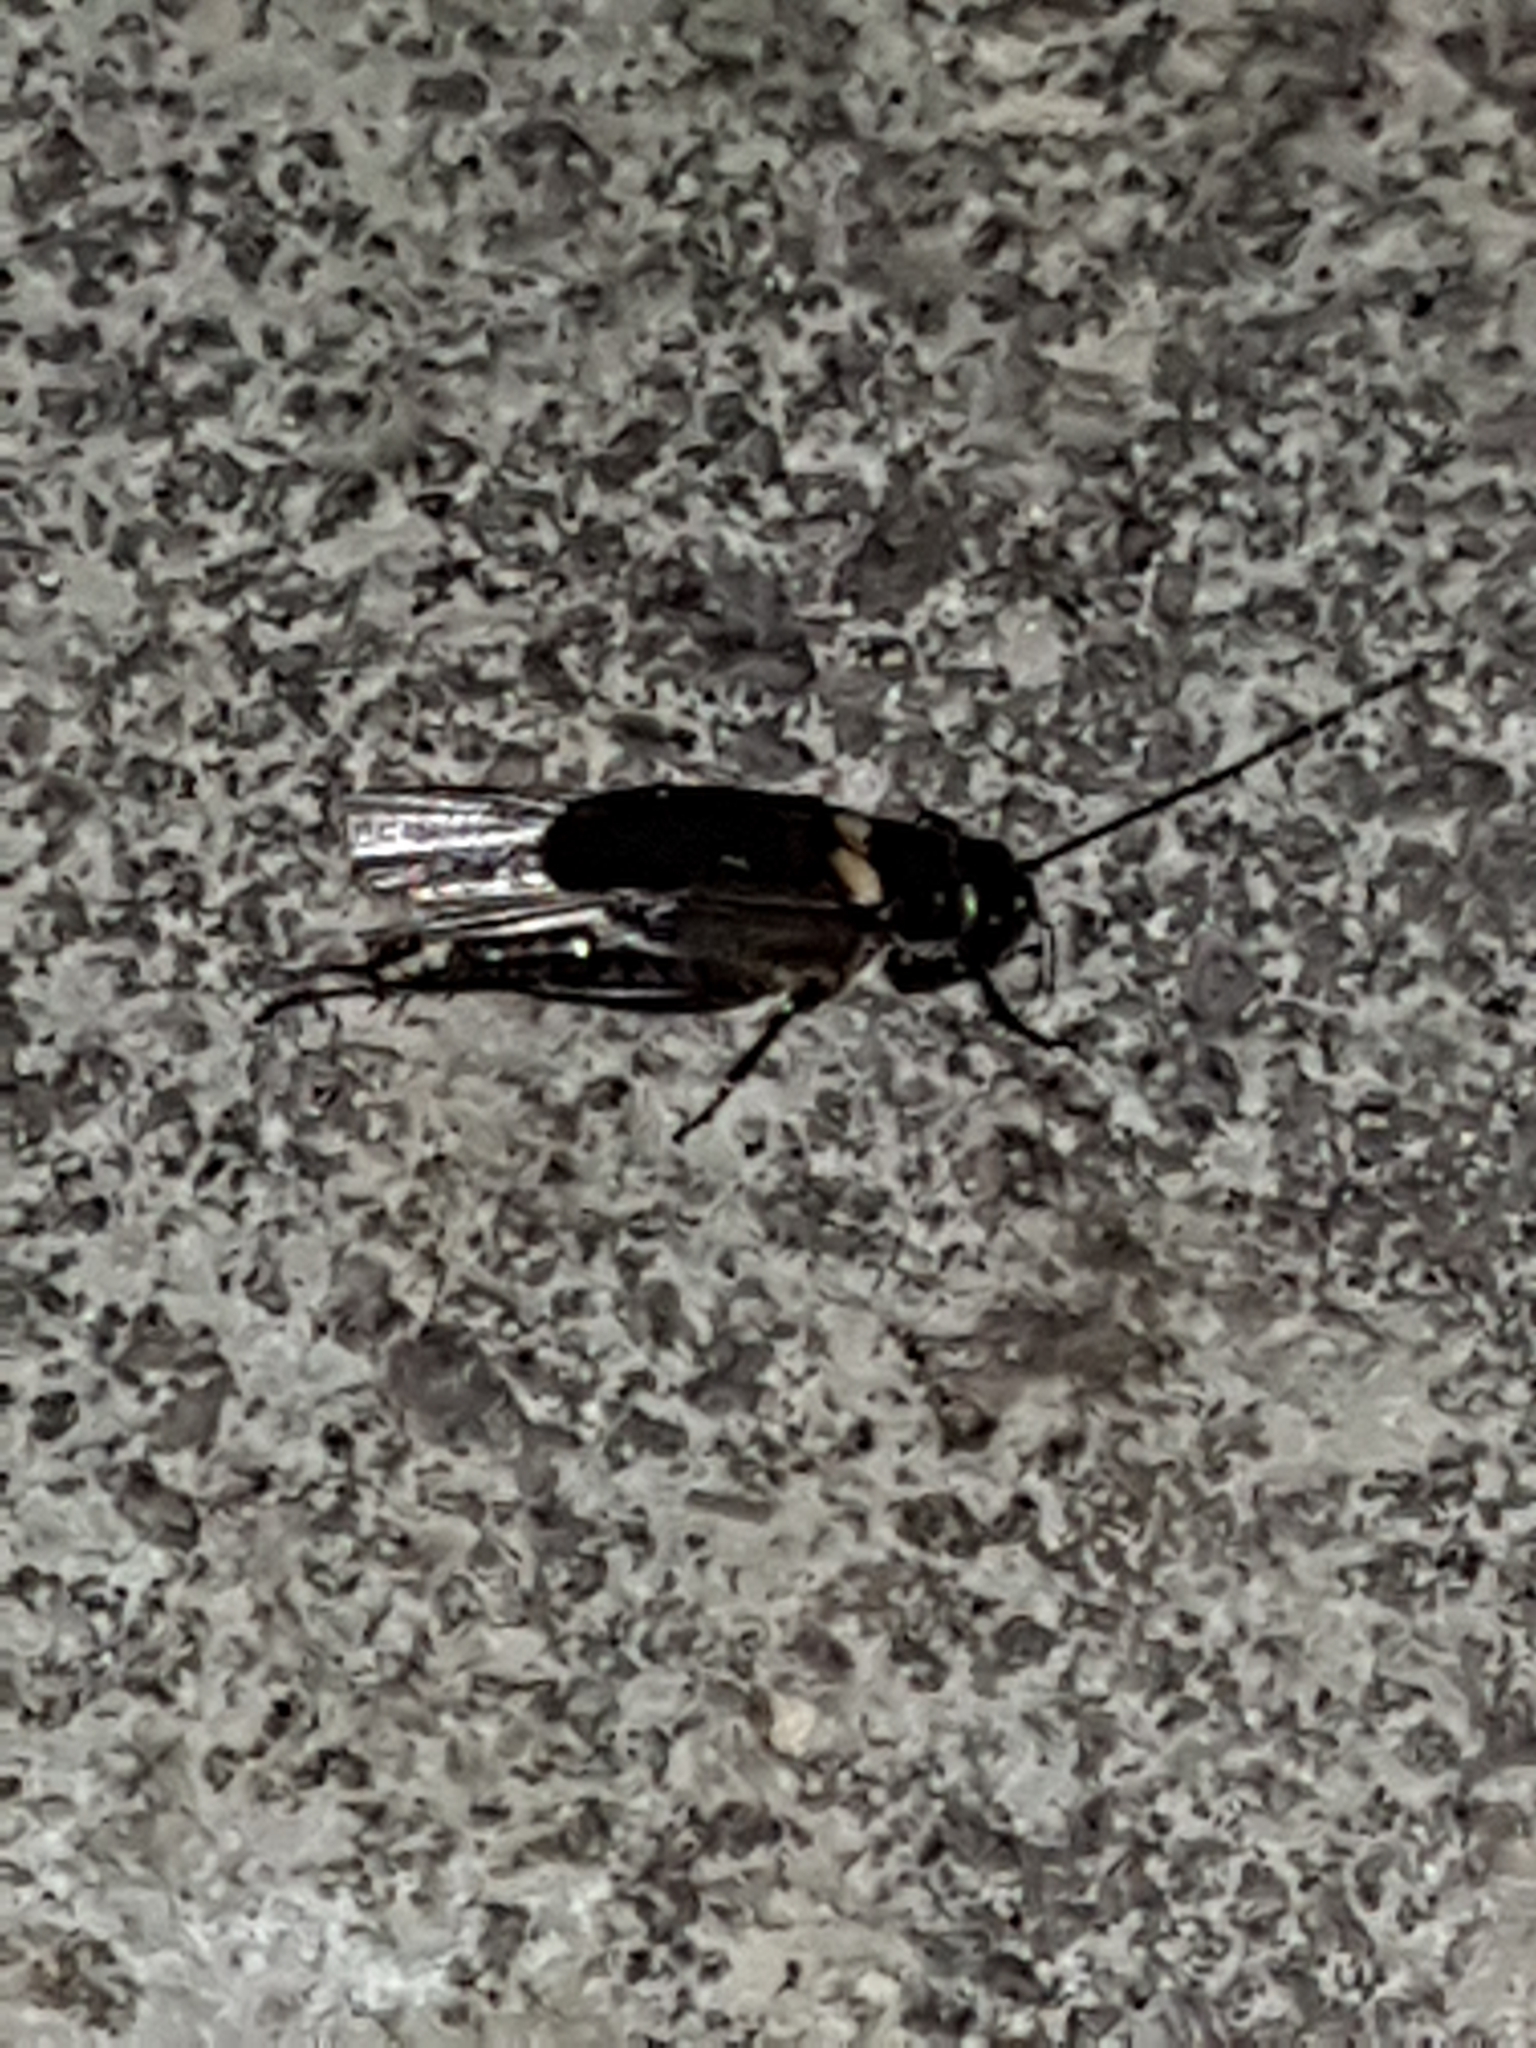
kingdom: Animalia
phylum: Arthropoda
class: Insecta
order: Orthoptera
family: Gryllidae
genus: Gryllus
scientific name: Gryllus bimaculatus
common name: Two-spotted cricket
